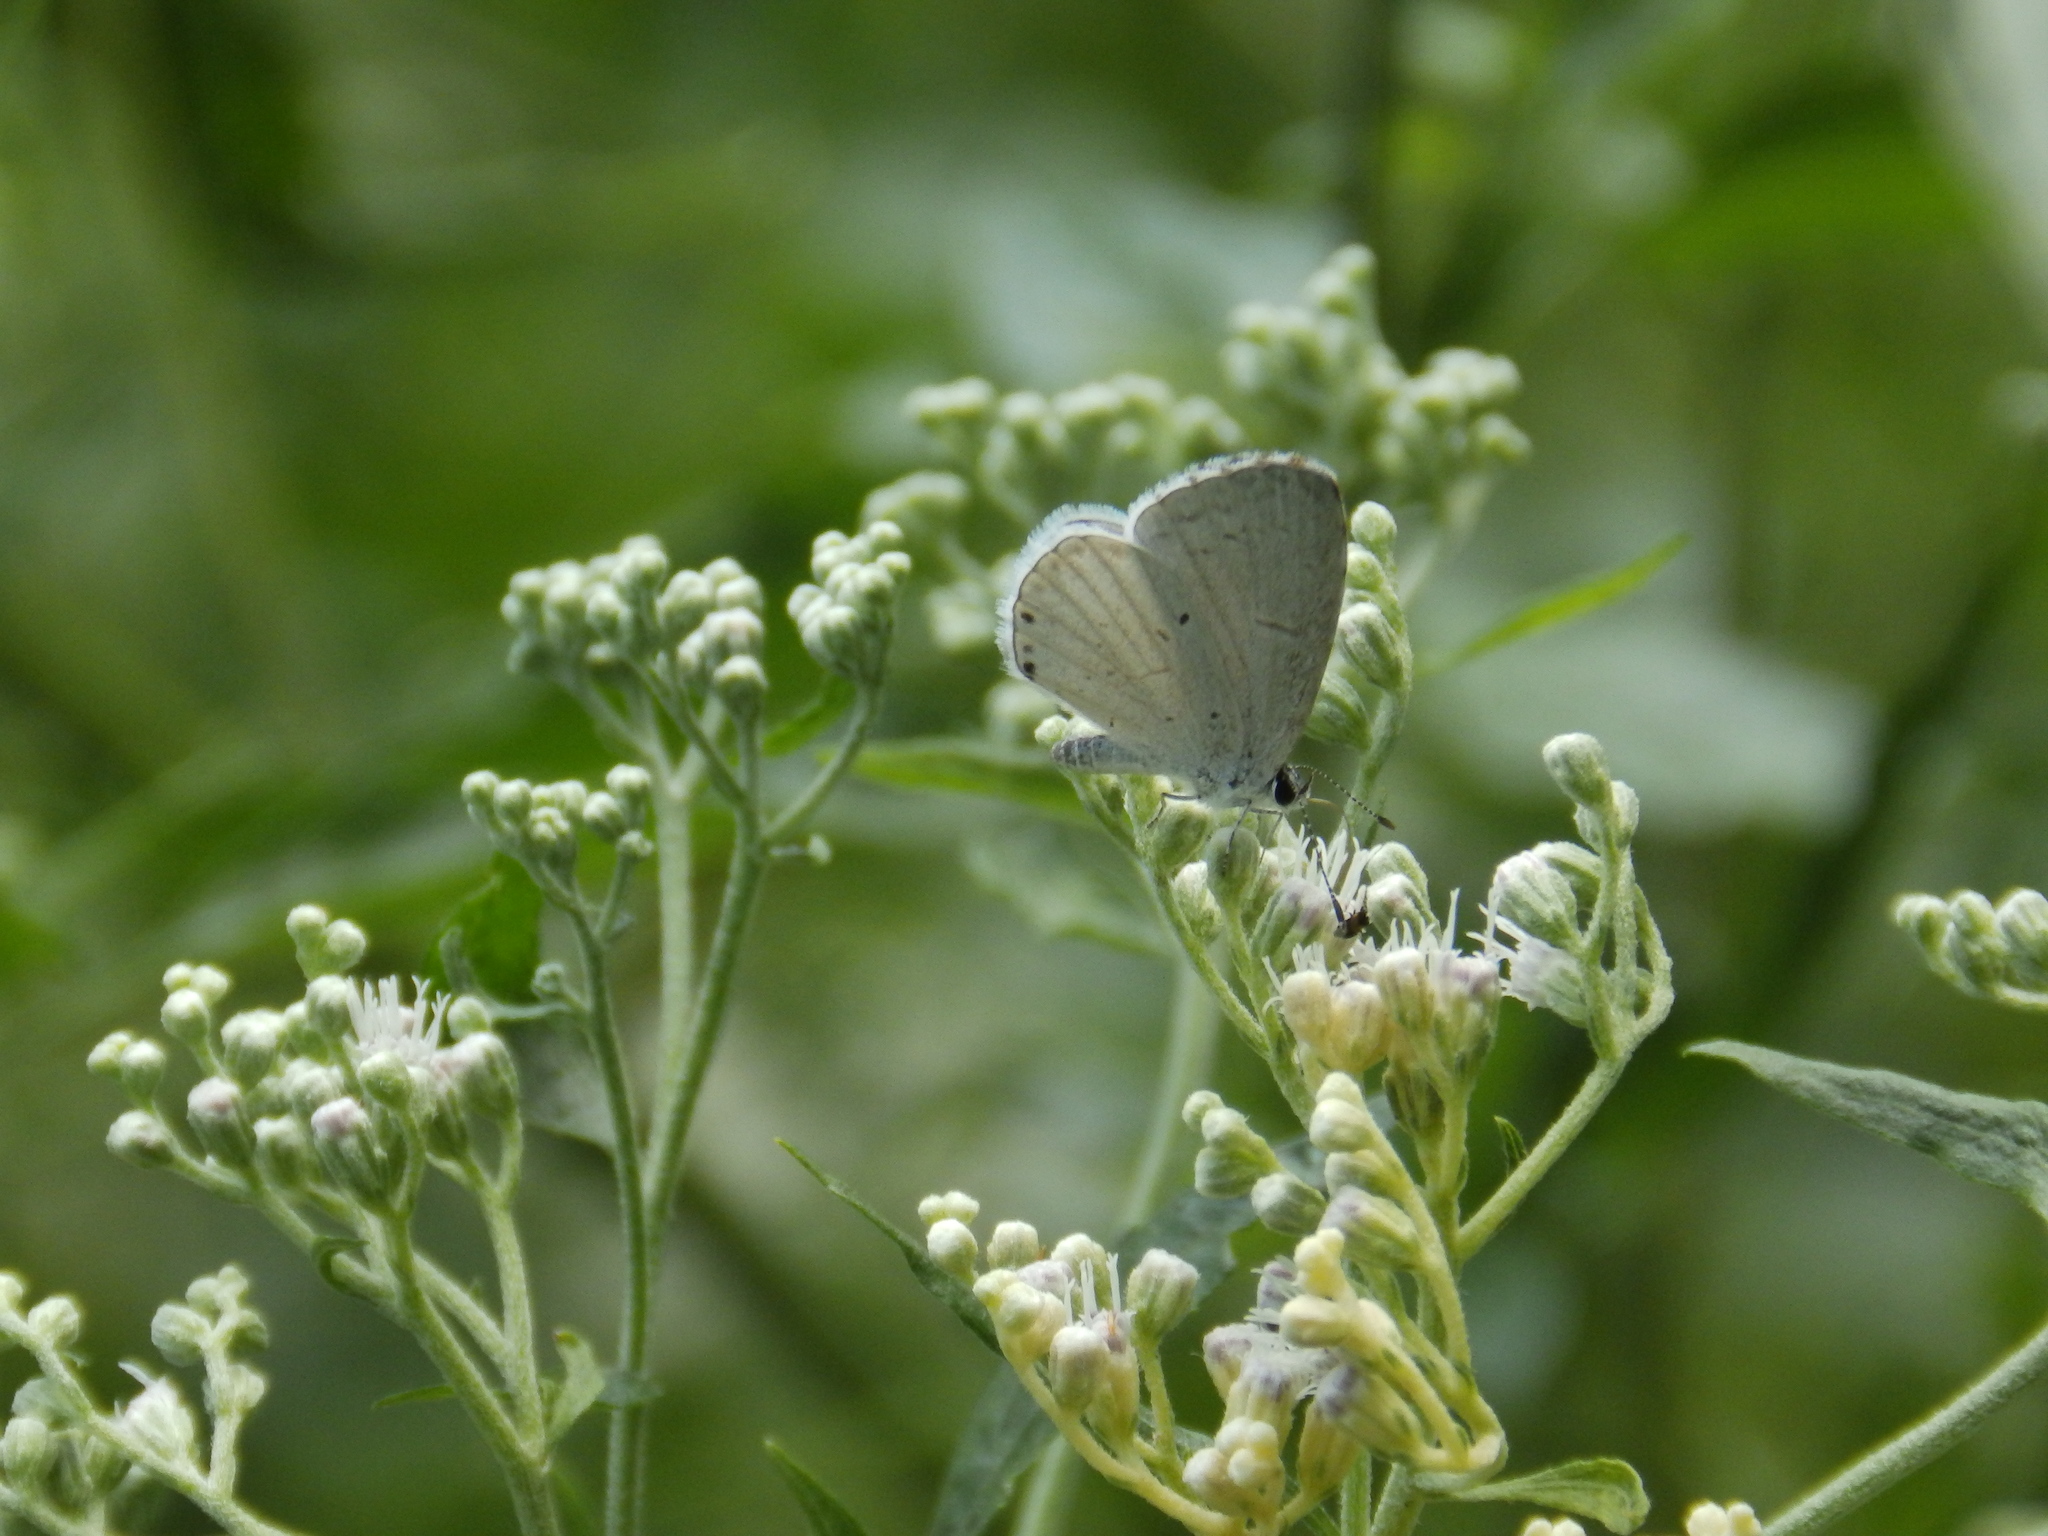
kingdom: Animalia
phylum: Arthropoda
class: Insecta
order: Lepidoptera
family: Lycaenidae
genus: Cyaniris
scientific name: Cyaniris neglecta
